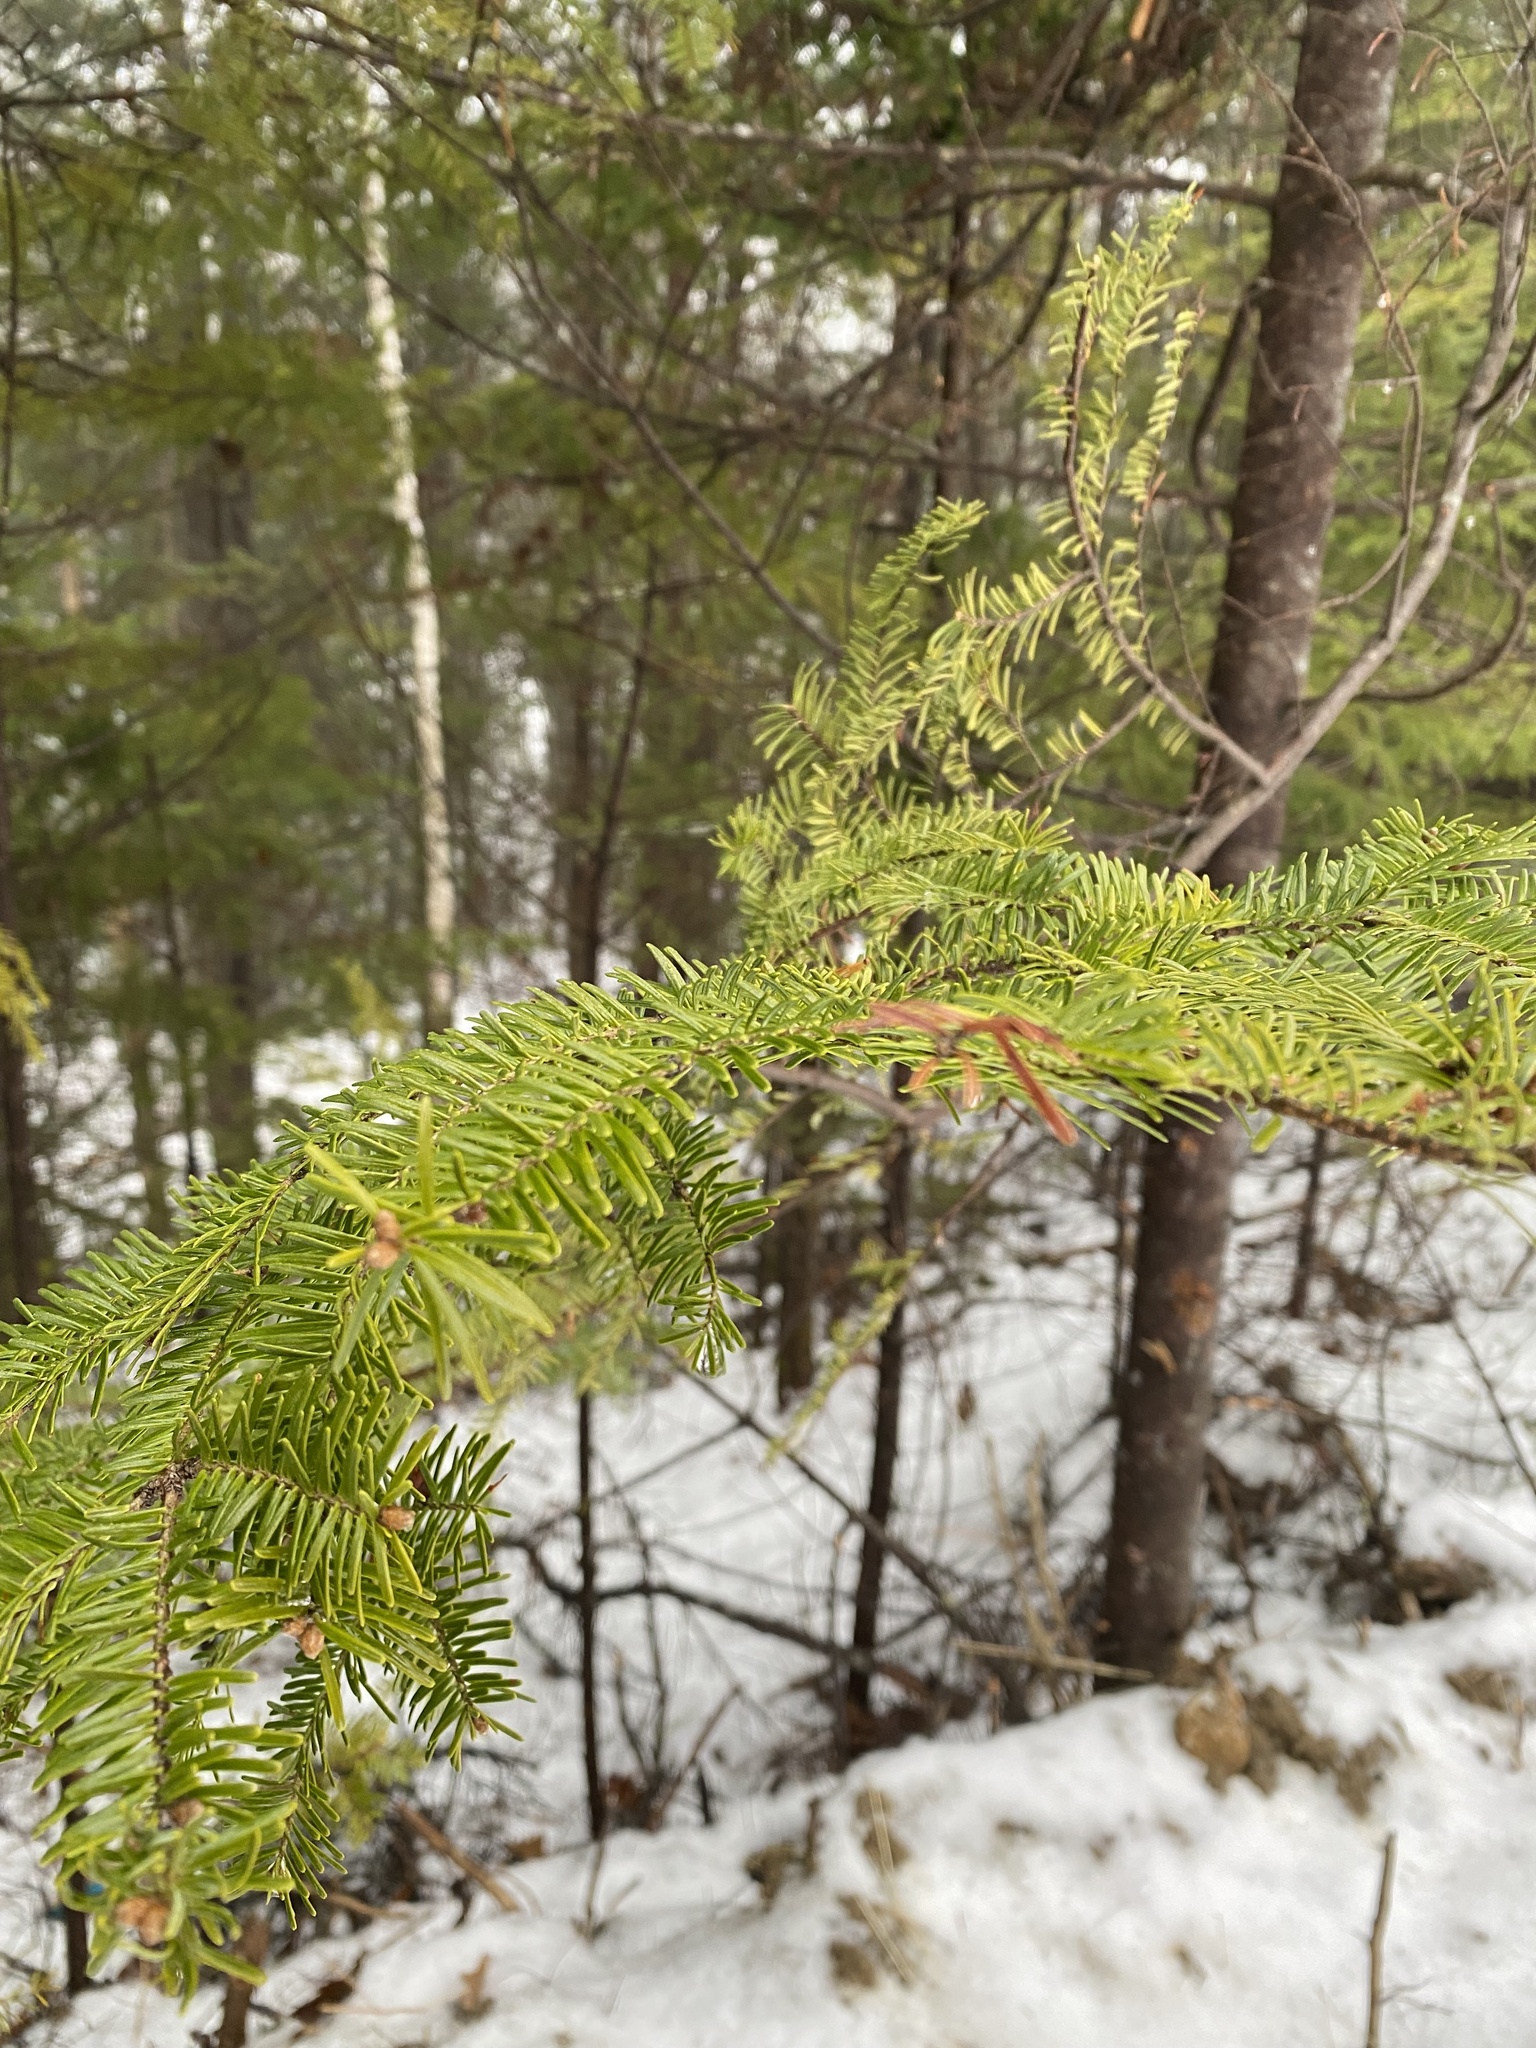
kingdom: Plantae
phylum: Tracheophyta
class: Pinopsida
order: Pinales
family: Pinaceae
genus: Abies
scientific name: Abies balsamea
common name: Balsam fir
